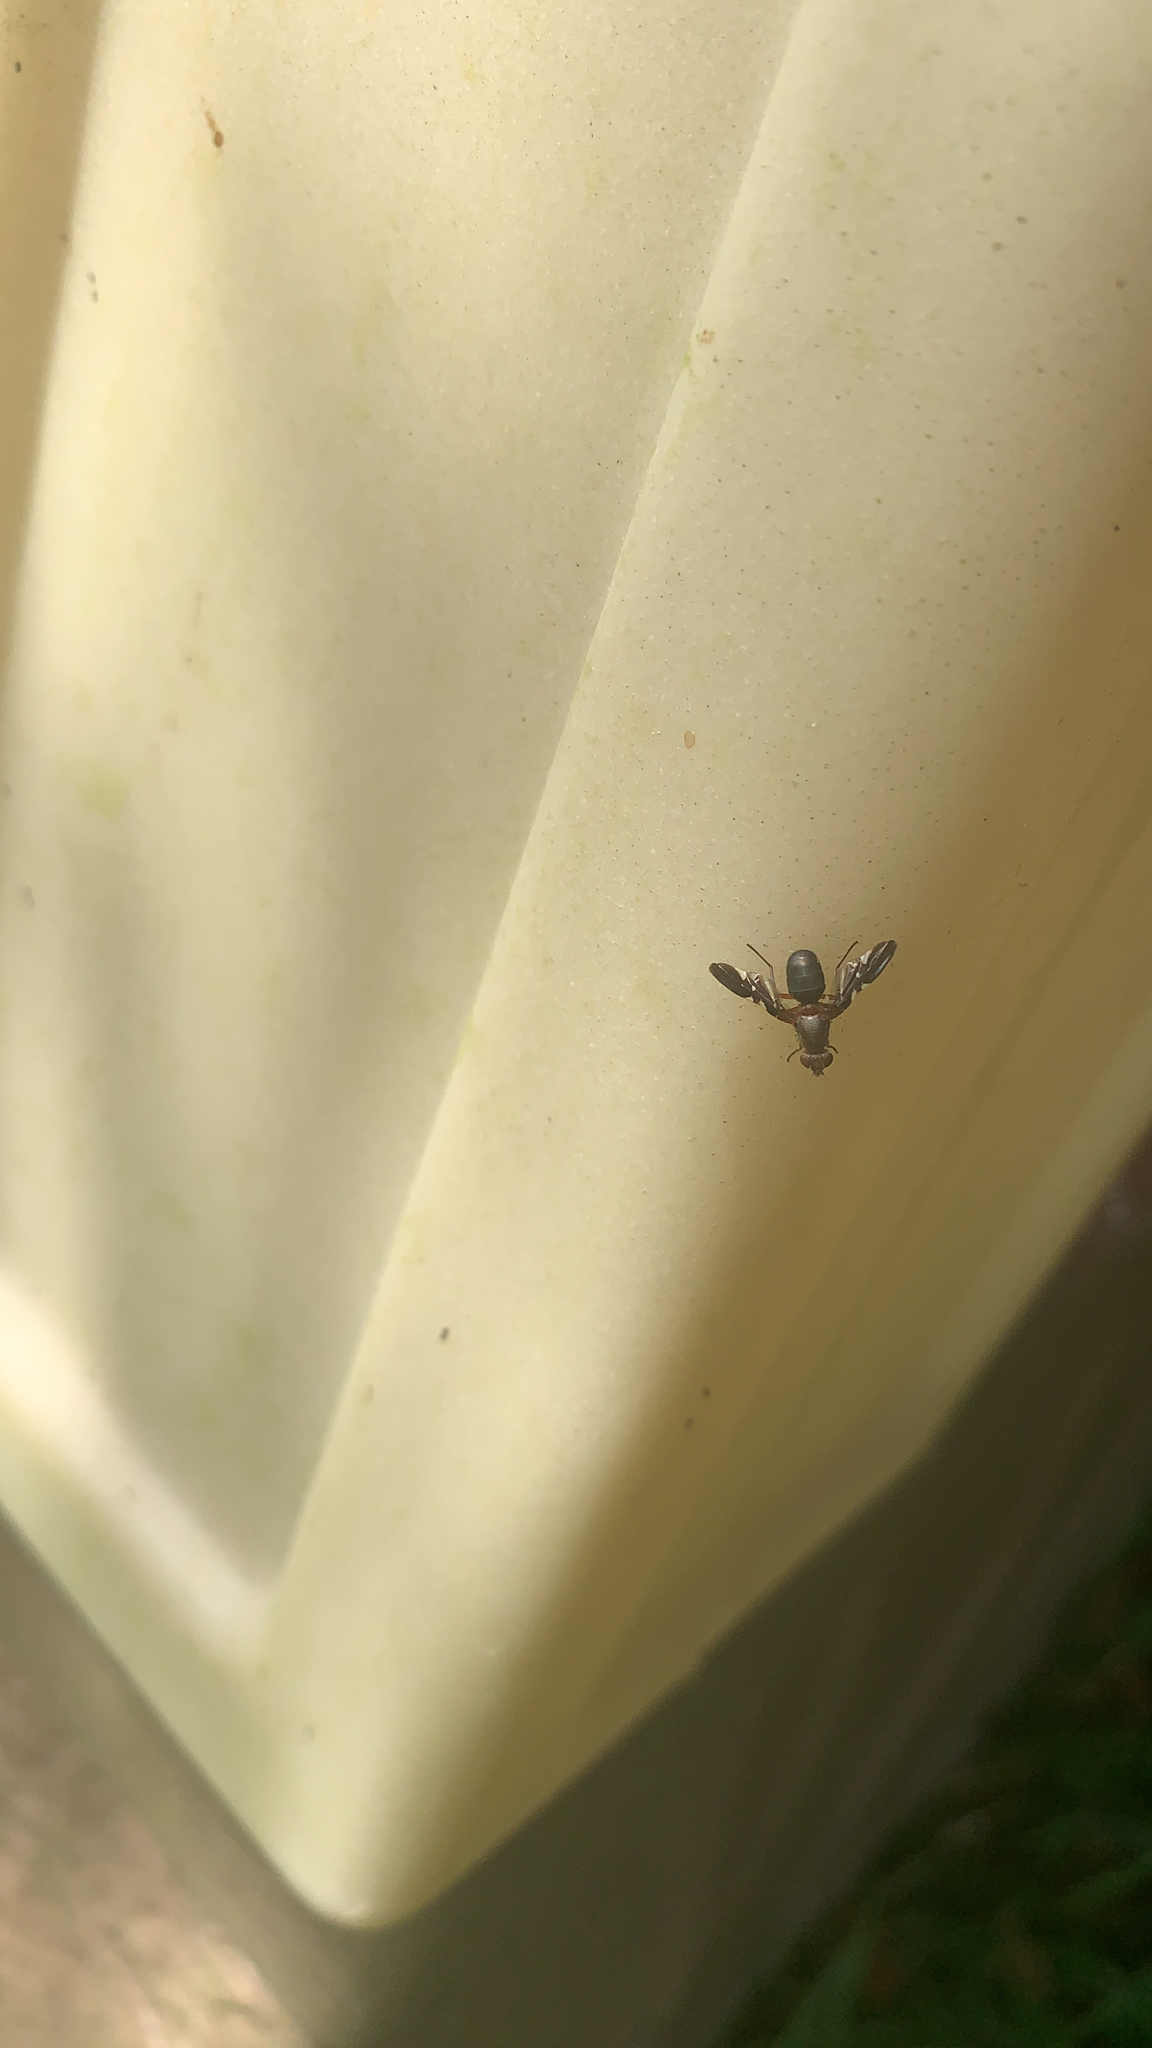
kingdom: Animalia
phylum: Arthropoda
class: Insecta
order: Diptera
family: Ulidiidae
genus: Delphinia
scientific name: Delphinia picta
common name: Common picture-winged fly
